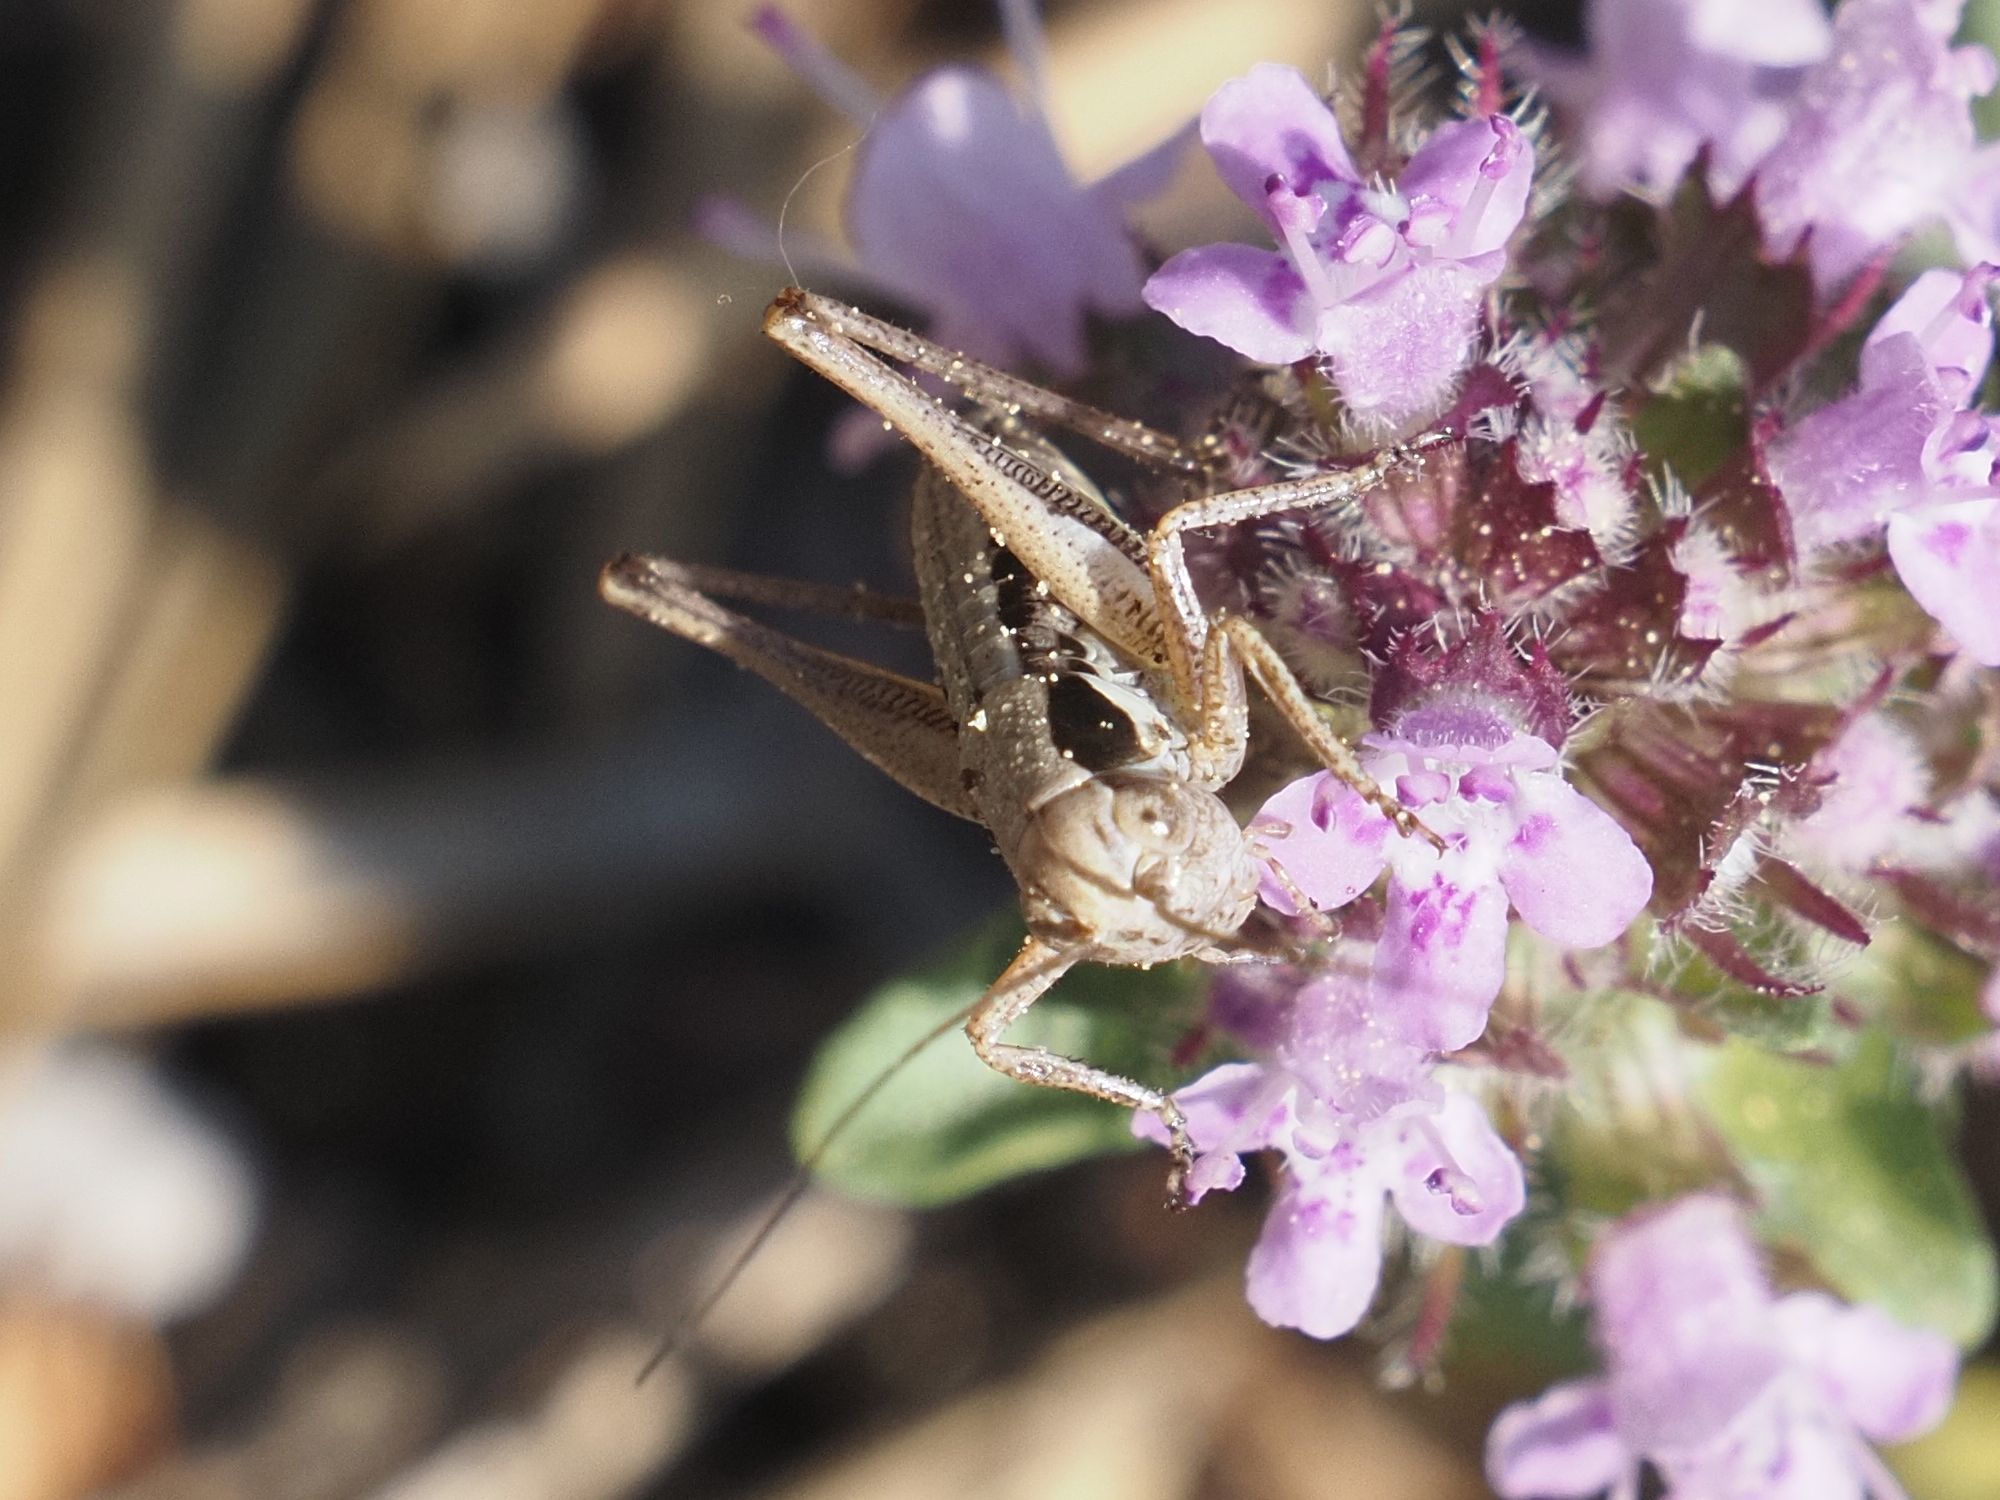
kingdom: Animalia
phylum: Arthropoda
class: Insecta
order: Orthoptera
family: Tettigoniidae
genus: Platycleis
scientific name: Platycleis grisea
